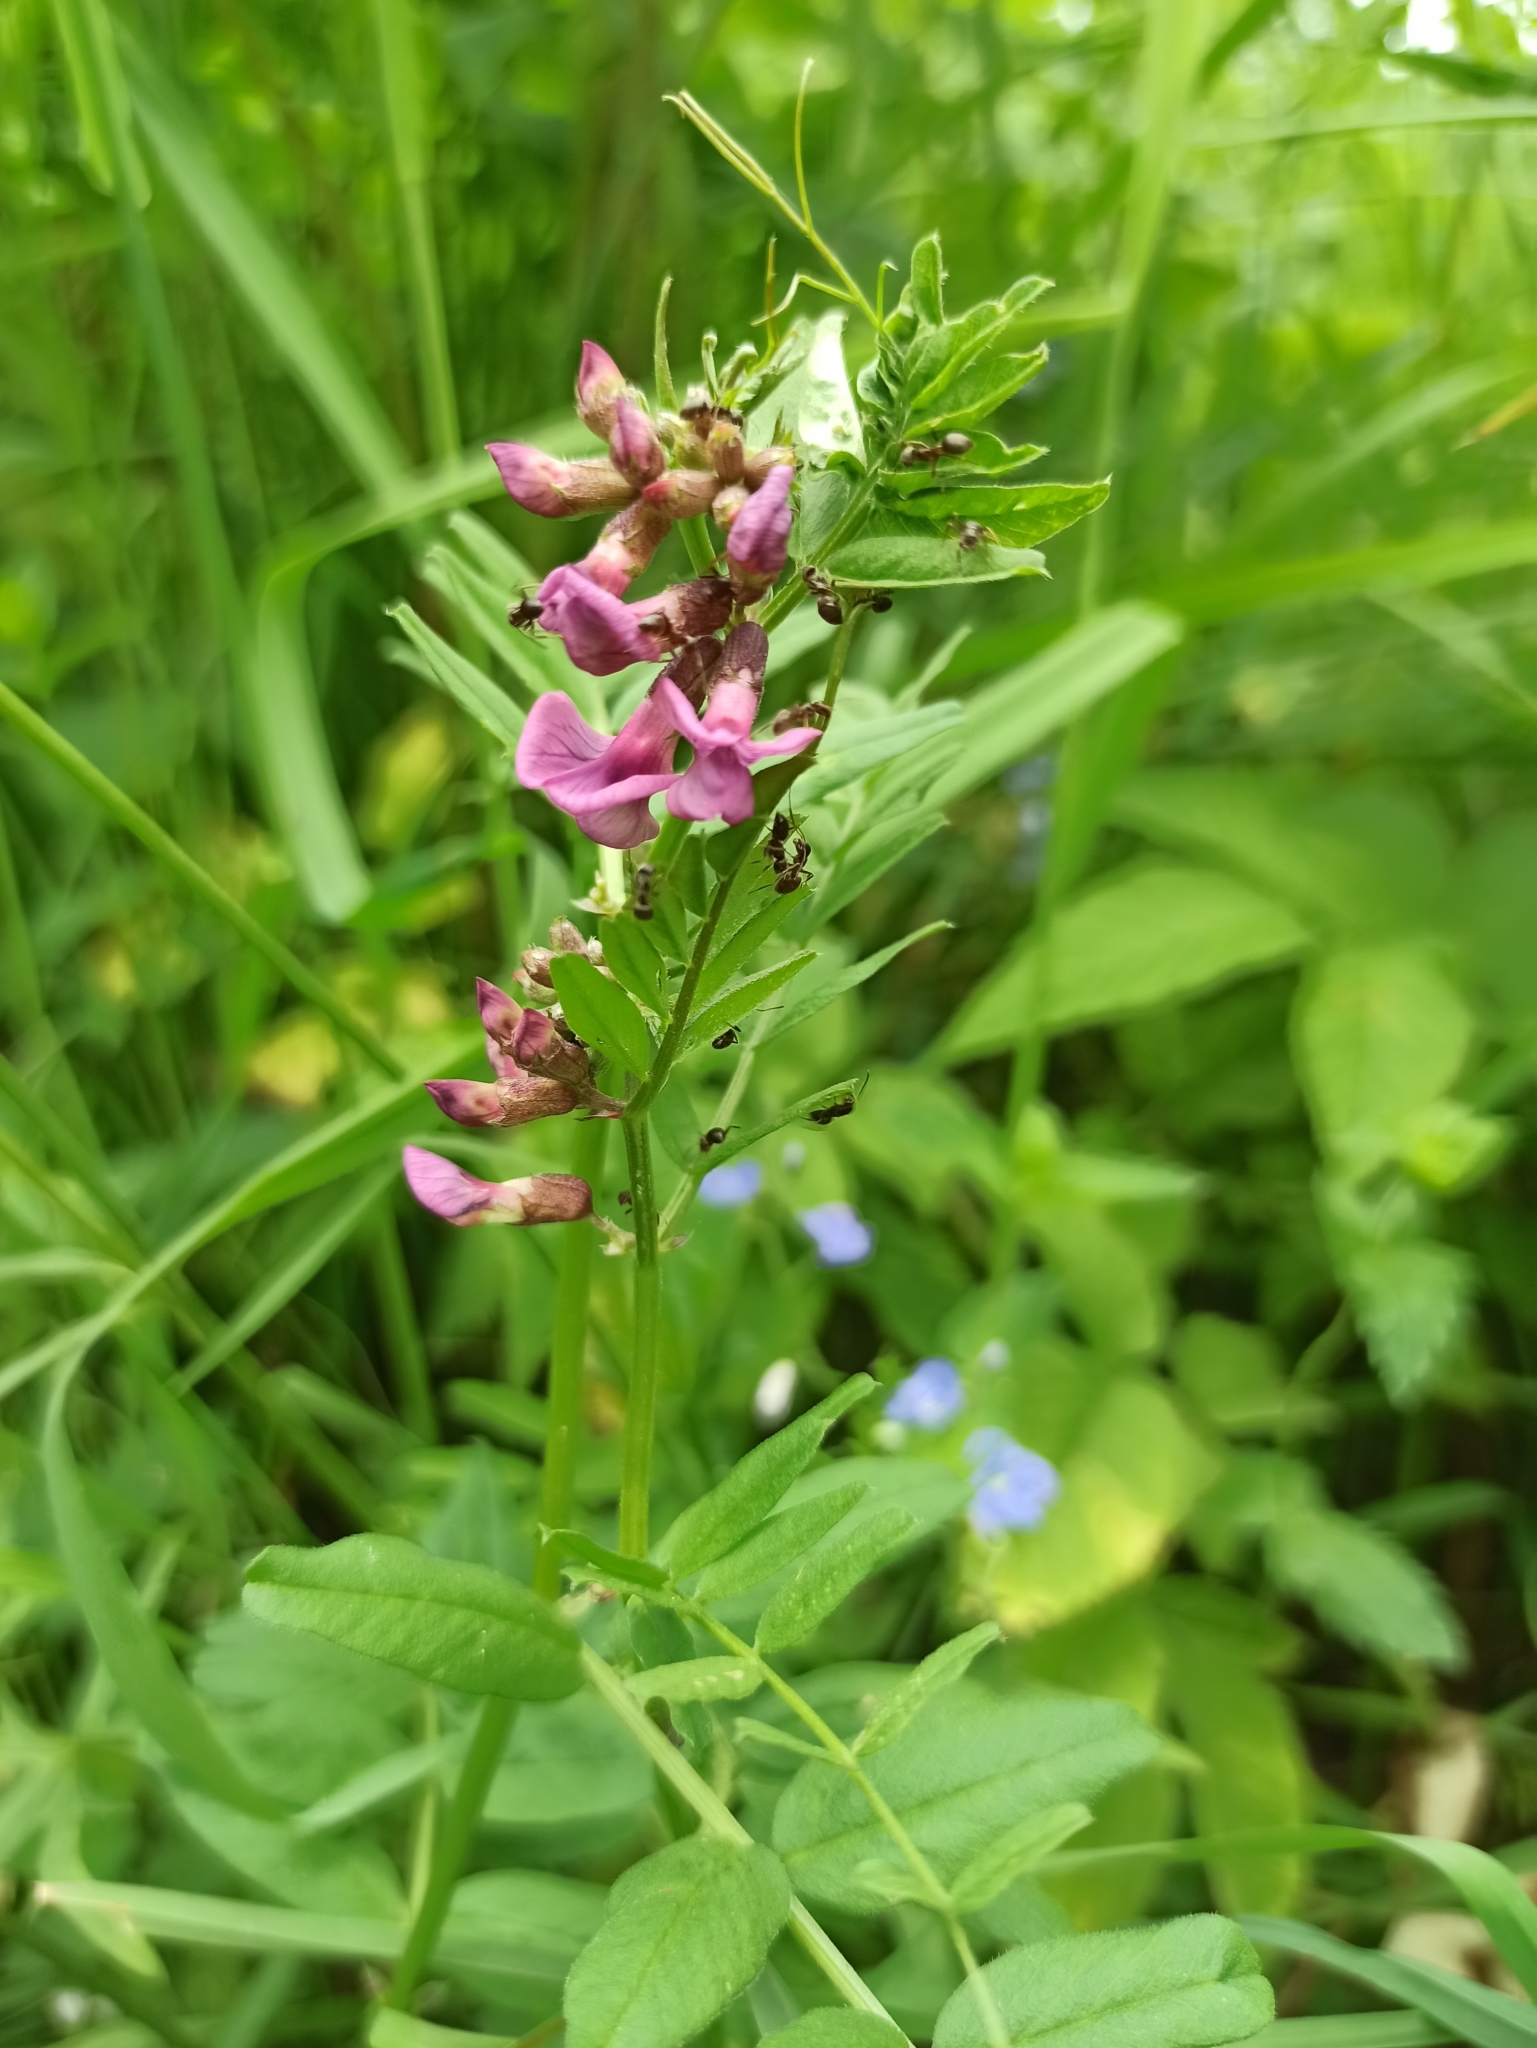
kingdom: Plantae
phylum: Tracheophyta
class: Magnoliopsida
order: Fabales
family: Fabaceae
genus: Vicia
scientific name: Vicia sepium
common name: Bush vetch
